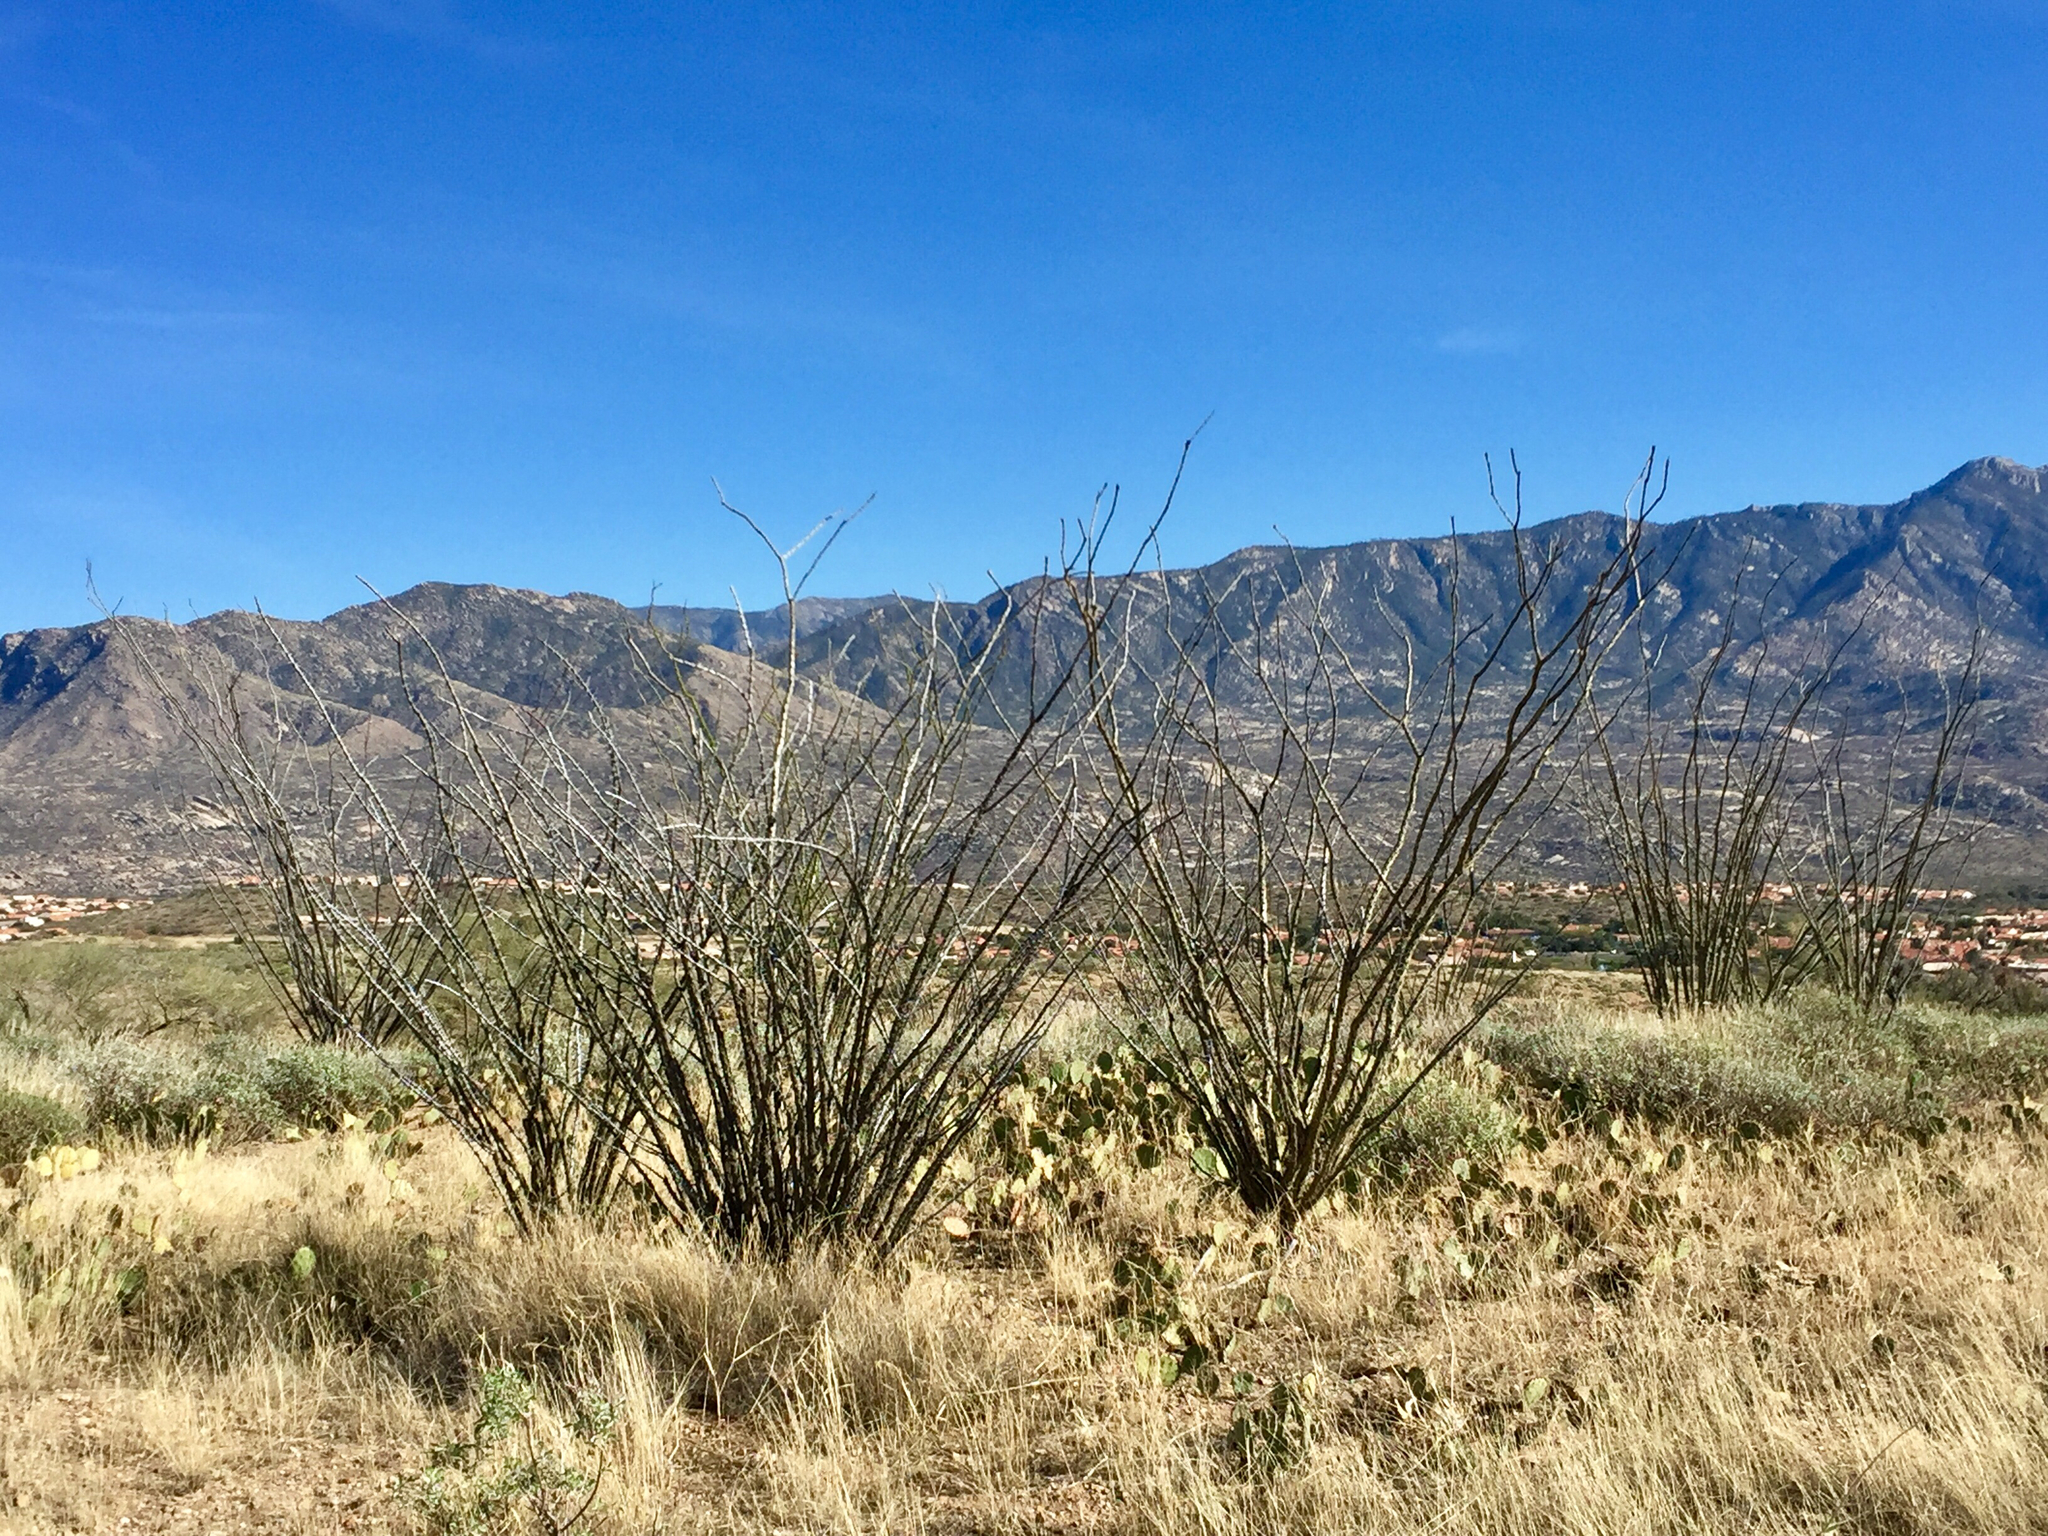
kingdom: Plantae
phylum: Tracheophyta
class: Magnoliopsida
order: Ericales
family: Fouquieriaceae
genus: Fouquieria
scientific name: Fouquieria splendens
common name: Vine-cactus
